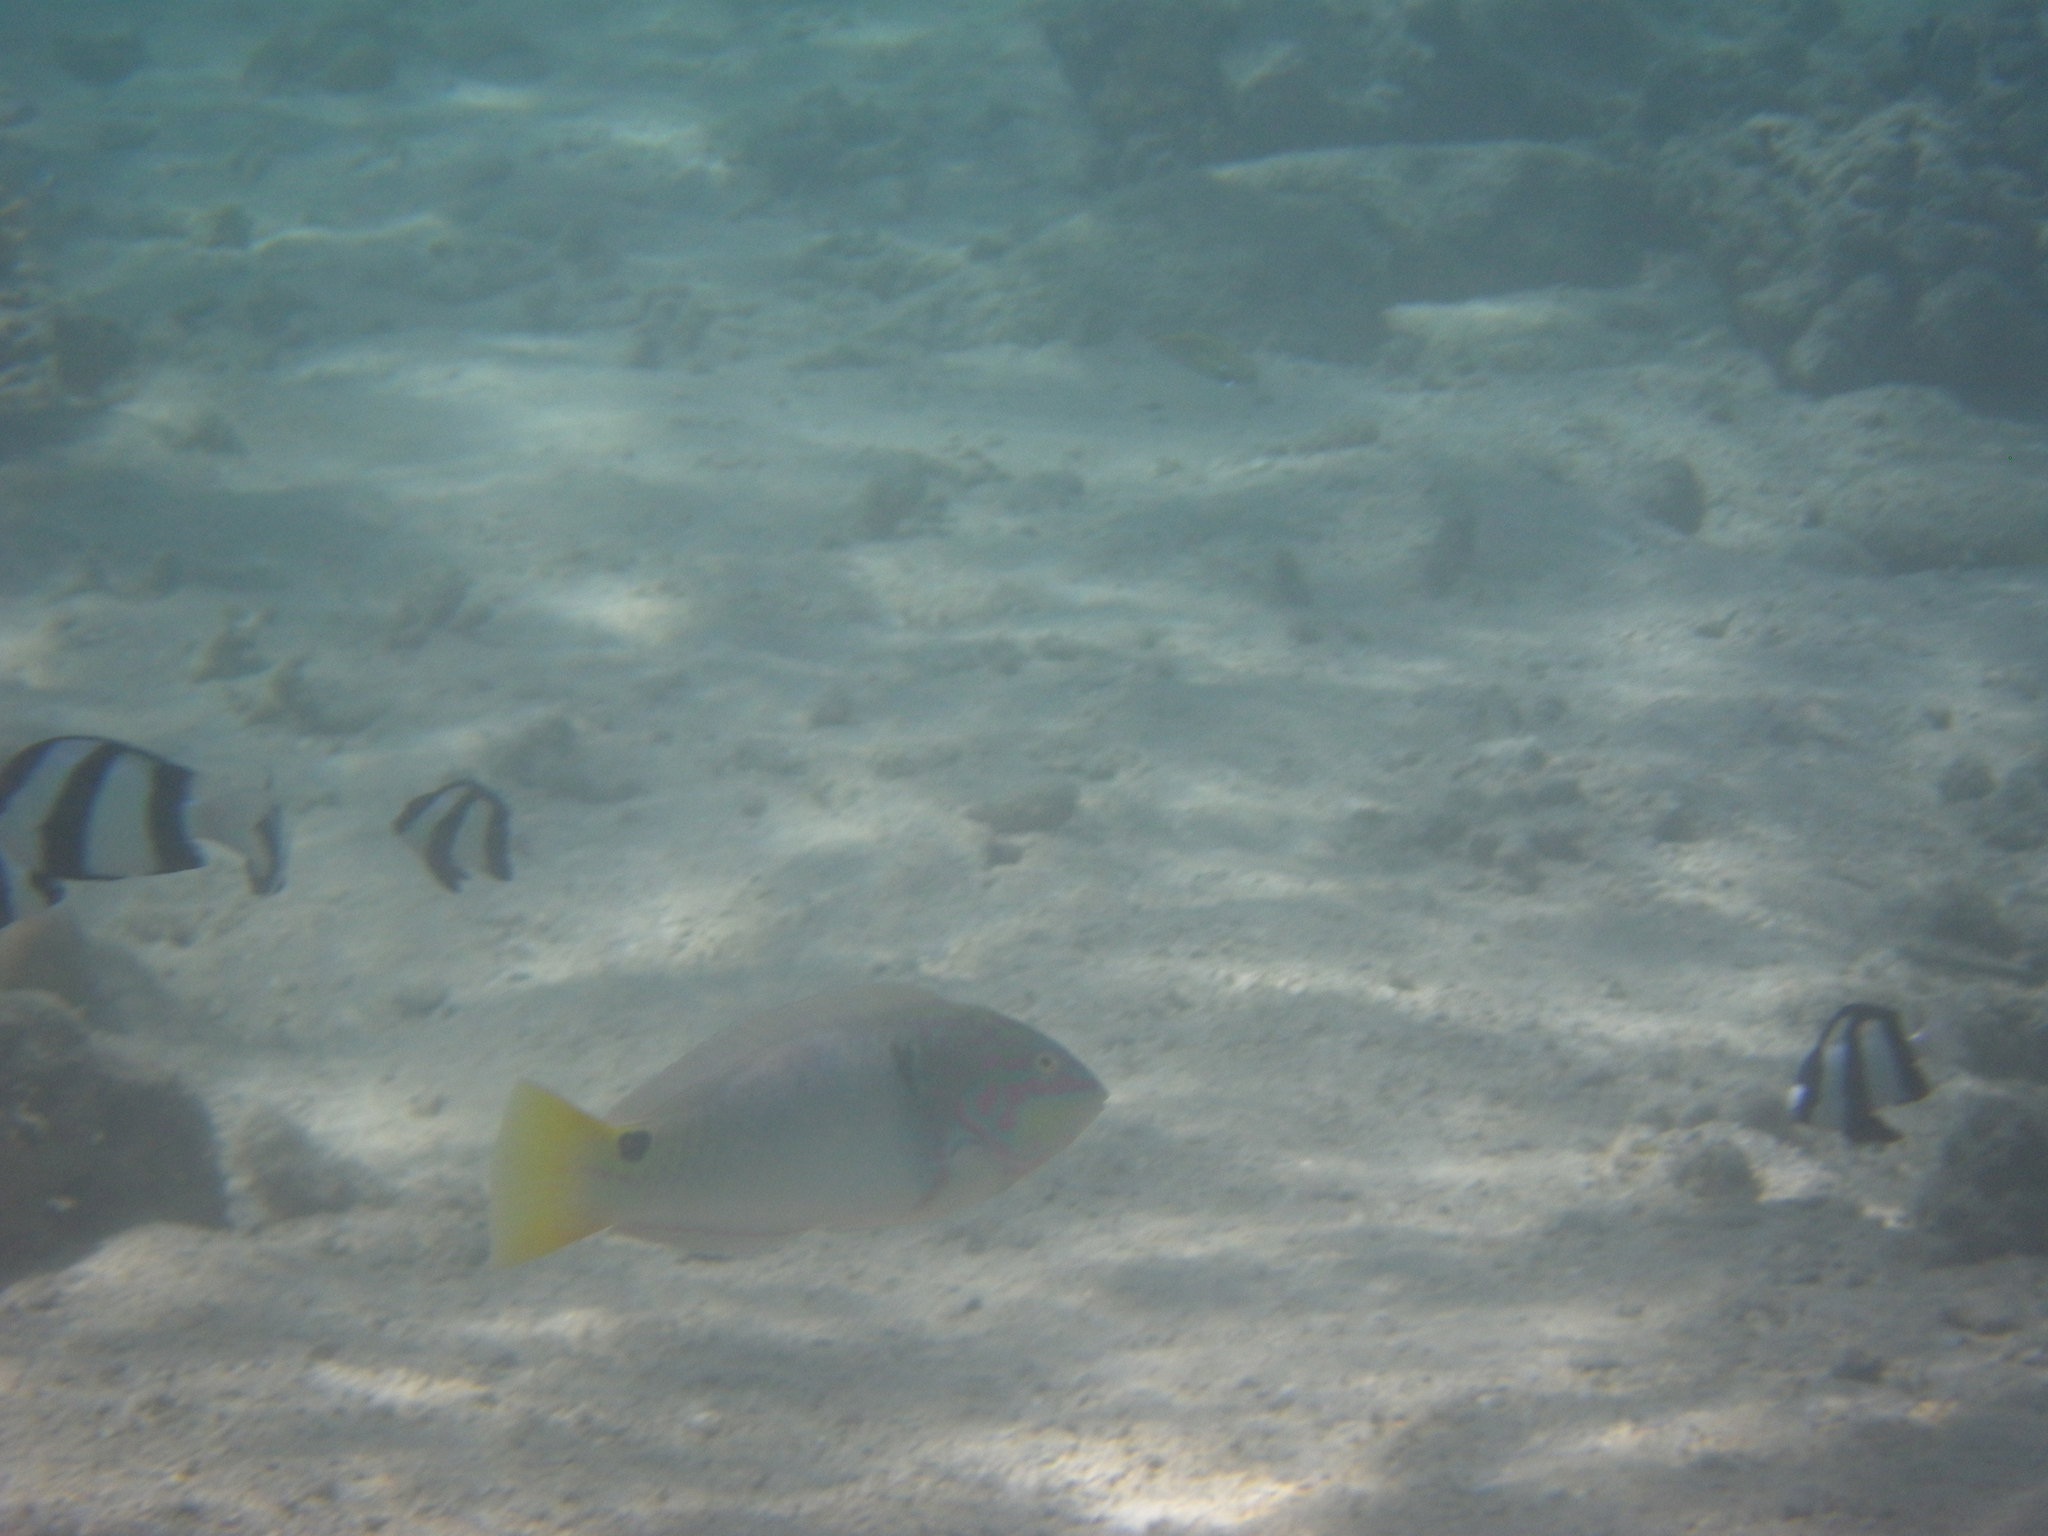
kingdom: Animalia
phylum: Chordata
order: Perciformes
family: Labridae
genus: Halichoeres
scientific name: Halichoeres trimaculatus
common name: Three-spot wrasse
